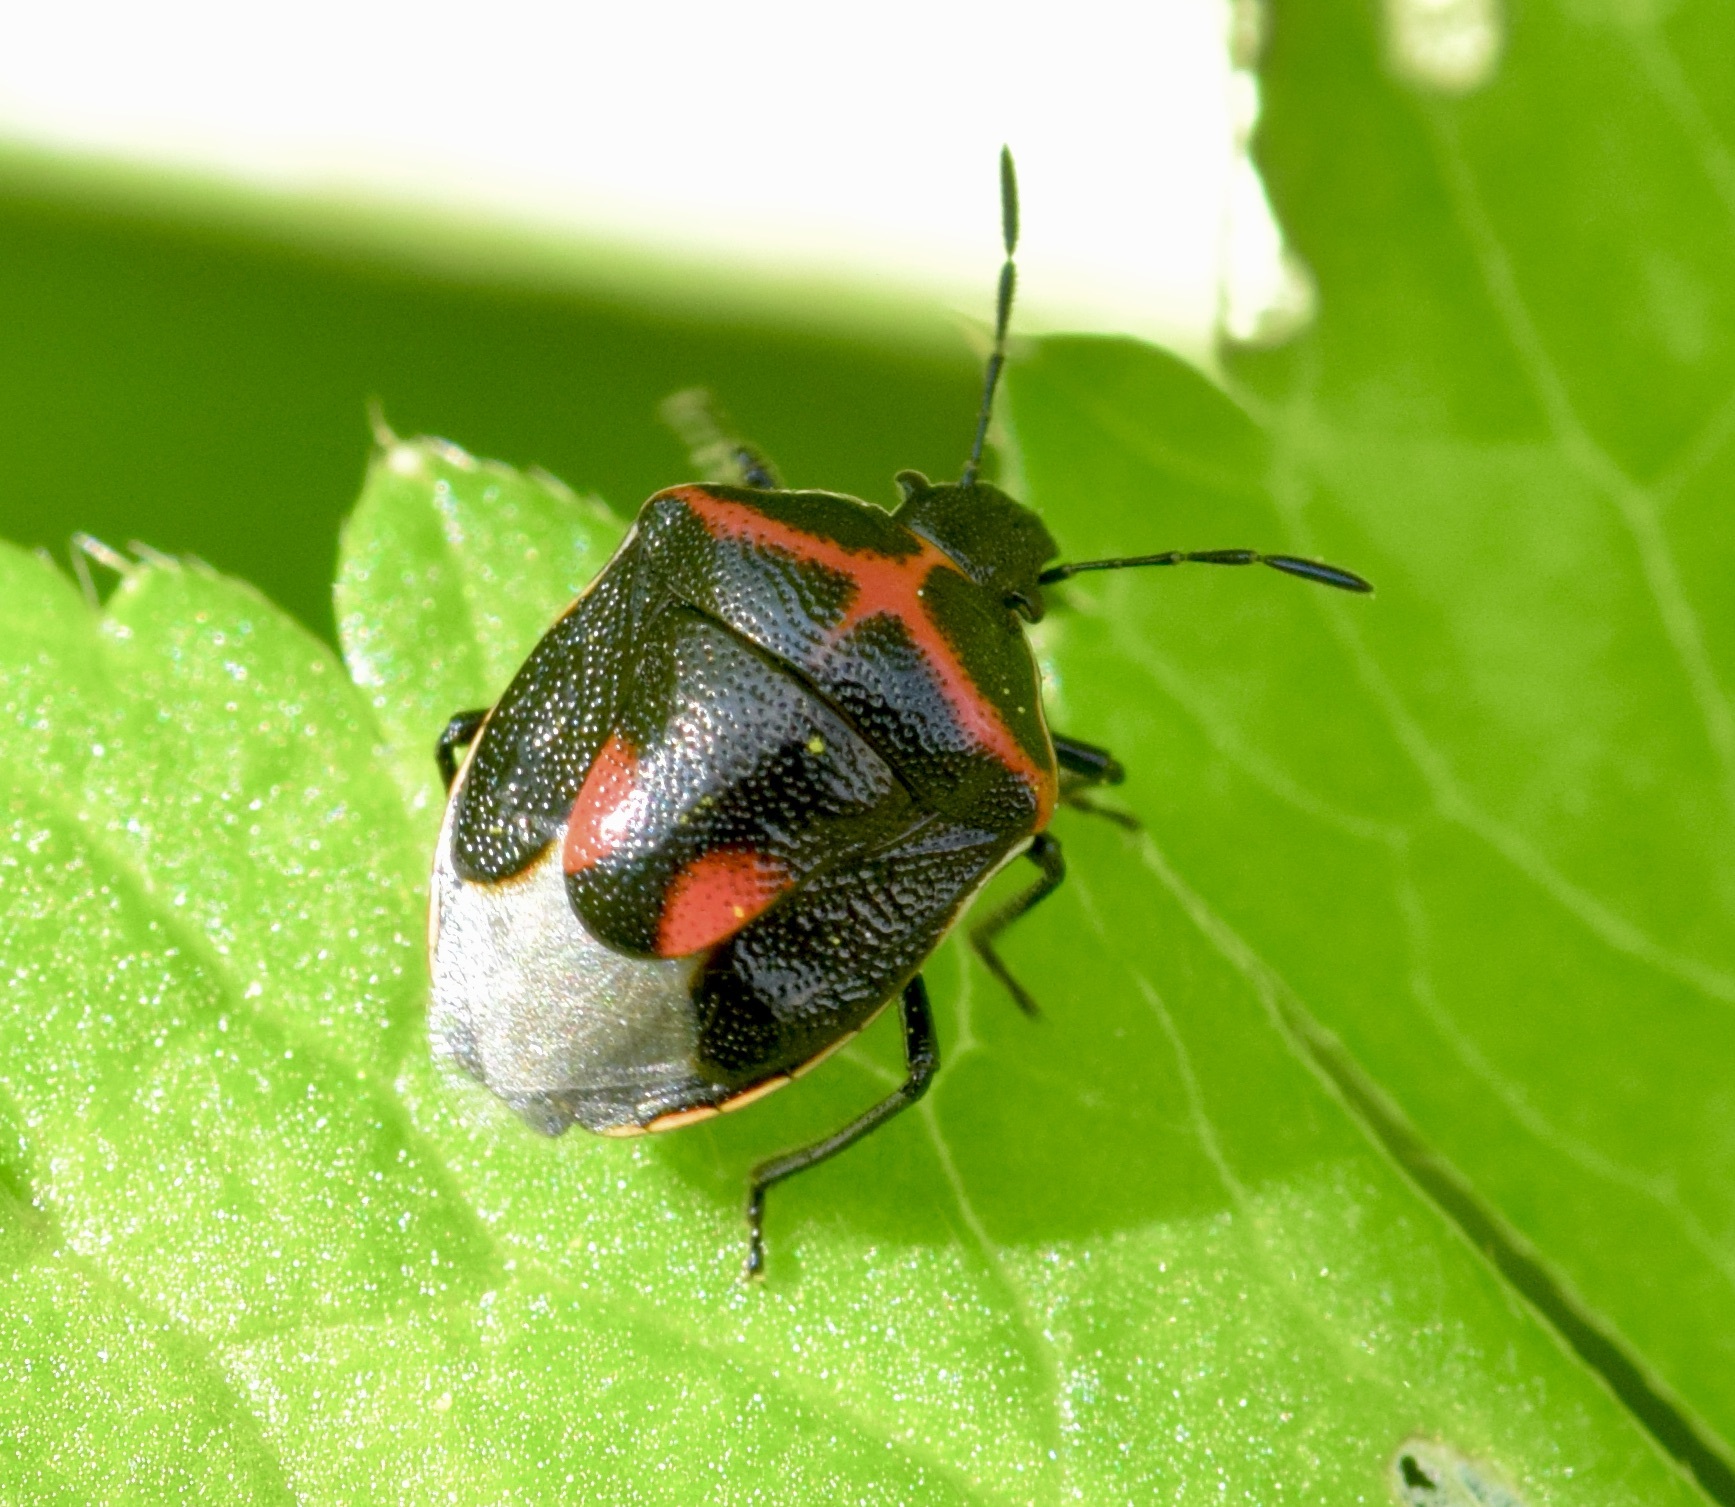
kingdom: Animalia
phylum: Arthropoda
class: Insecta
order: Hemiptera
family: Pentatomidae
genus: Cosmopepla
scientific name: Cosmopepla lintneriana
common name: Twice-stabbed stink bug
